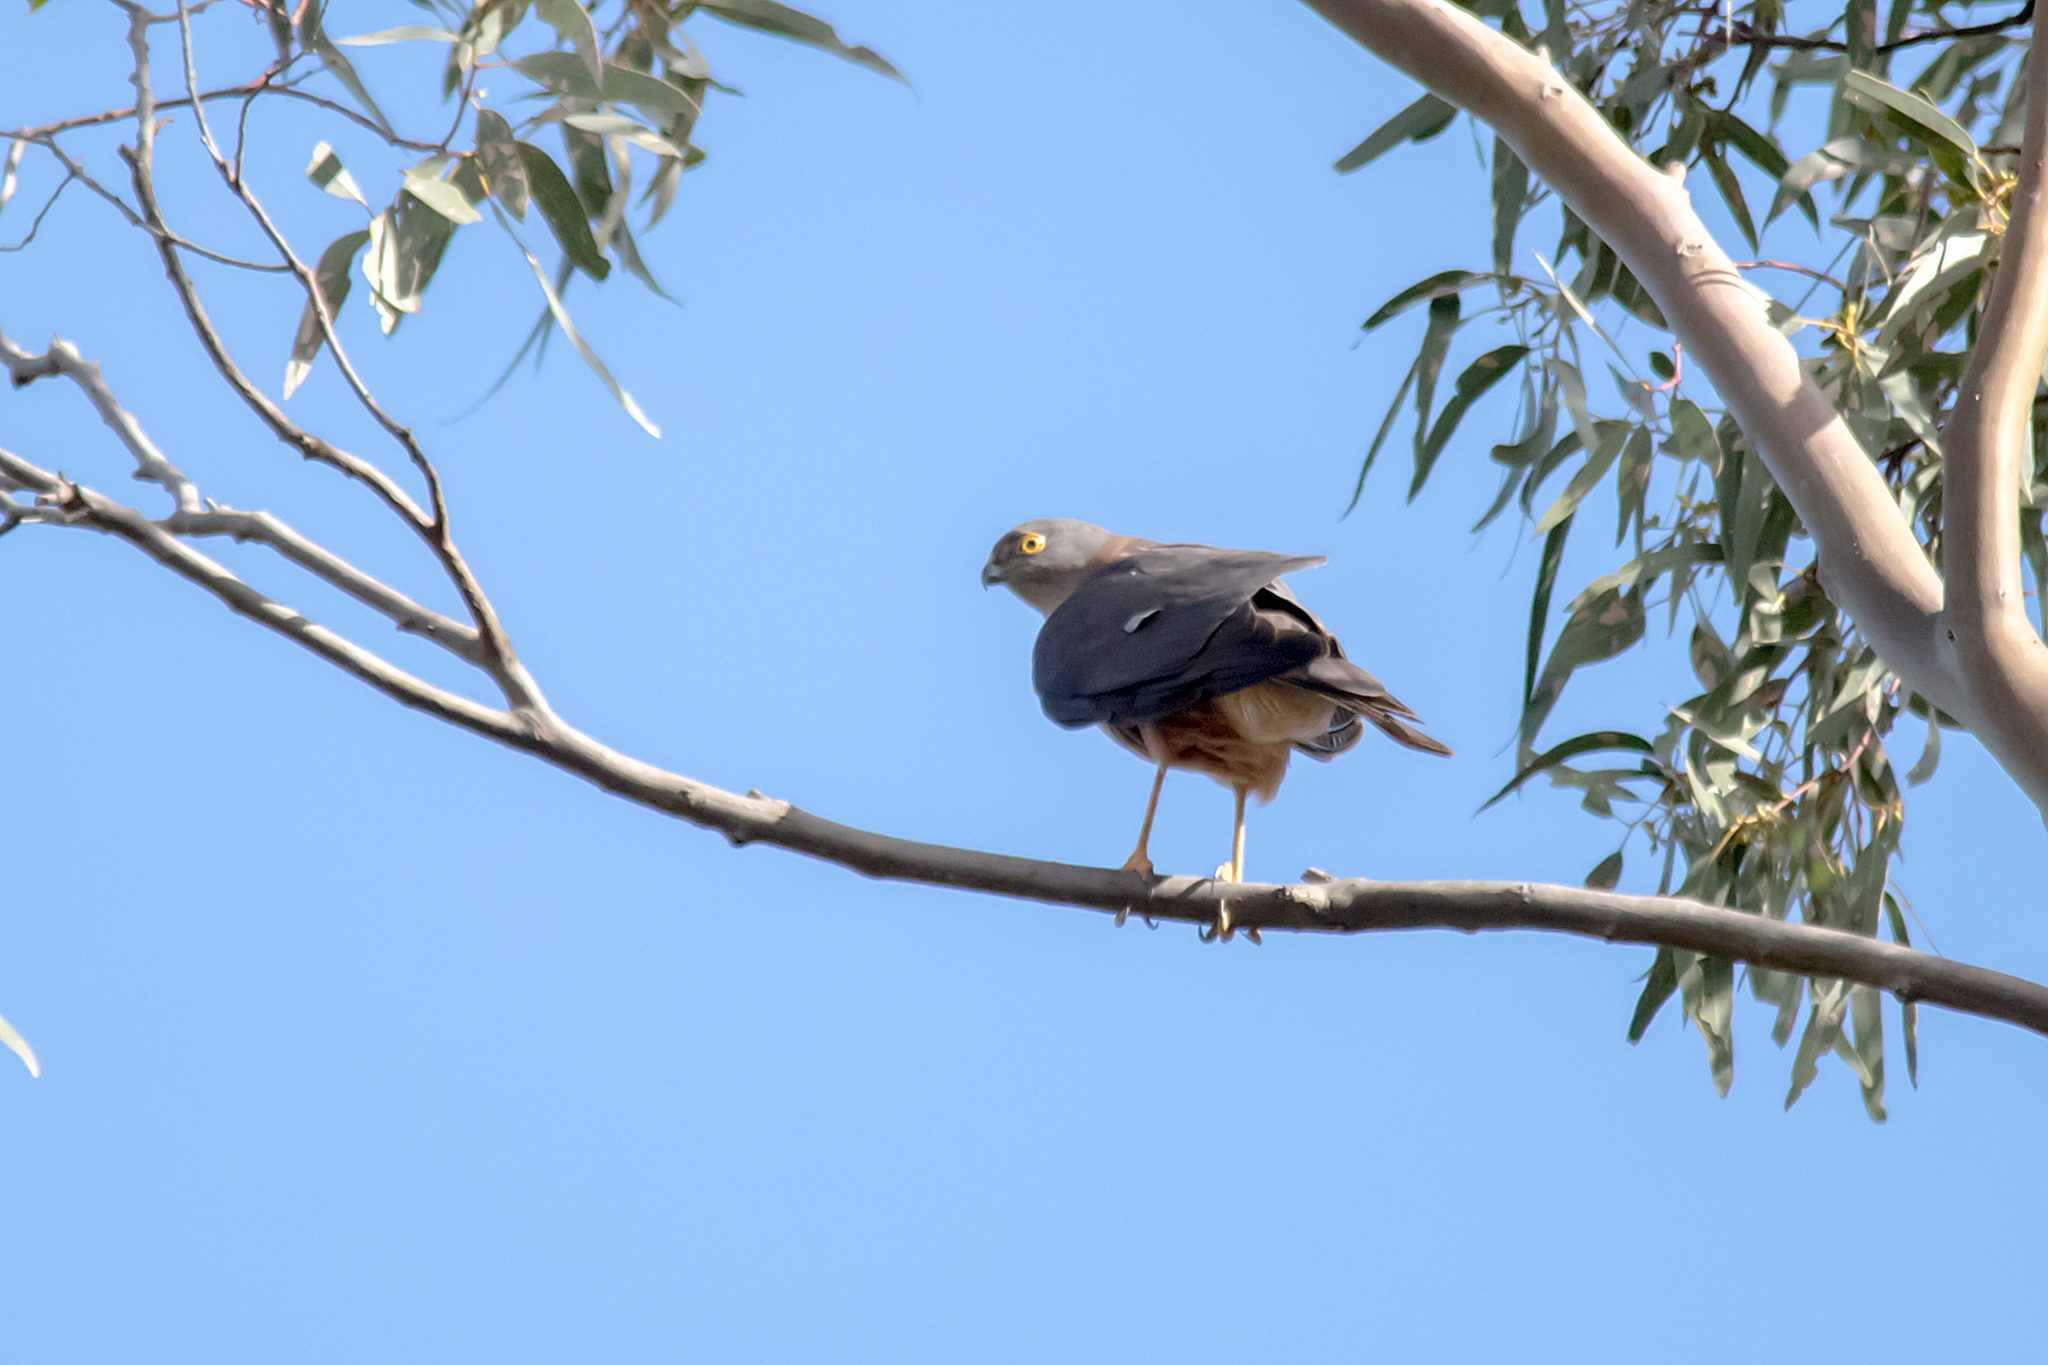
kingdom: Animalia
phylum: Chordata
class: Aves
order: Accipitriformes
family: Accipitridae
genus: Accipiter
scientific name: Accipiter cirrocephalus
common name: Collared sparrowhawk
